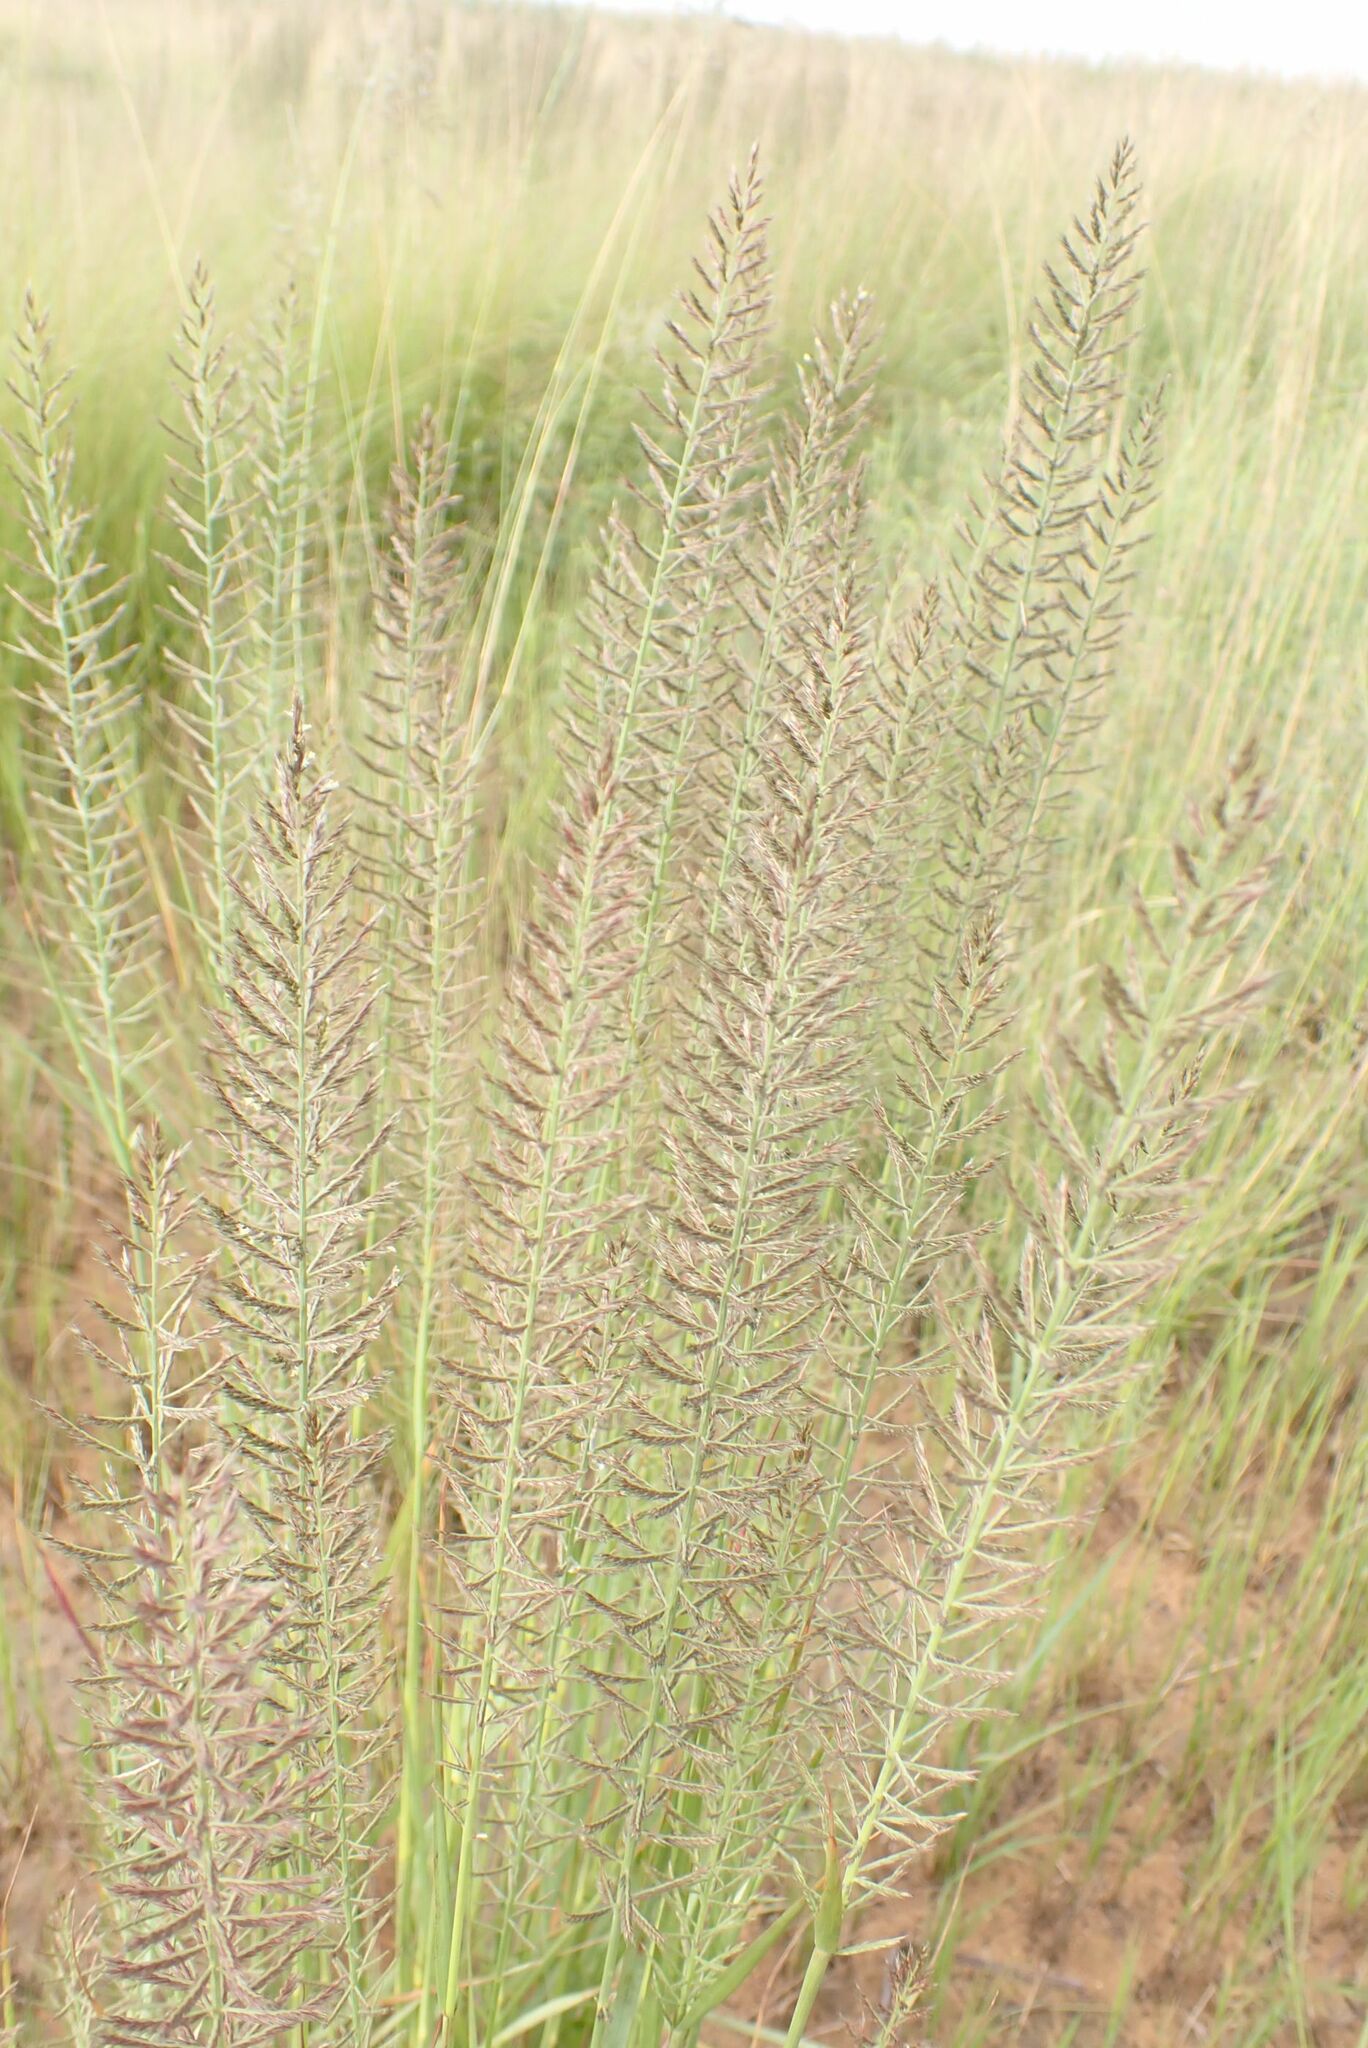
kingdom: Plantae
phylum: Tracheophyta
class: Liliopsida
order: Poales
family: Poaceae
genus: Pogonarthria
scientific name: Pogonarthria squarrosa
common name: Grass
